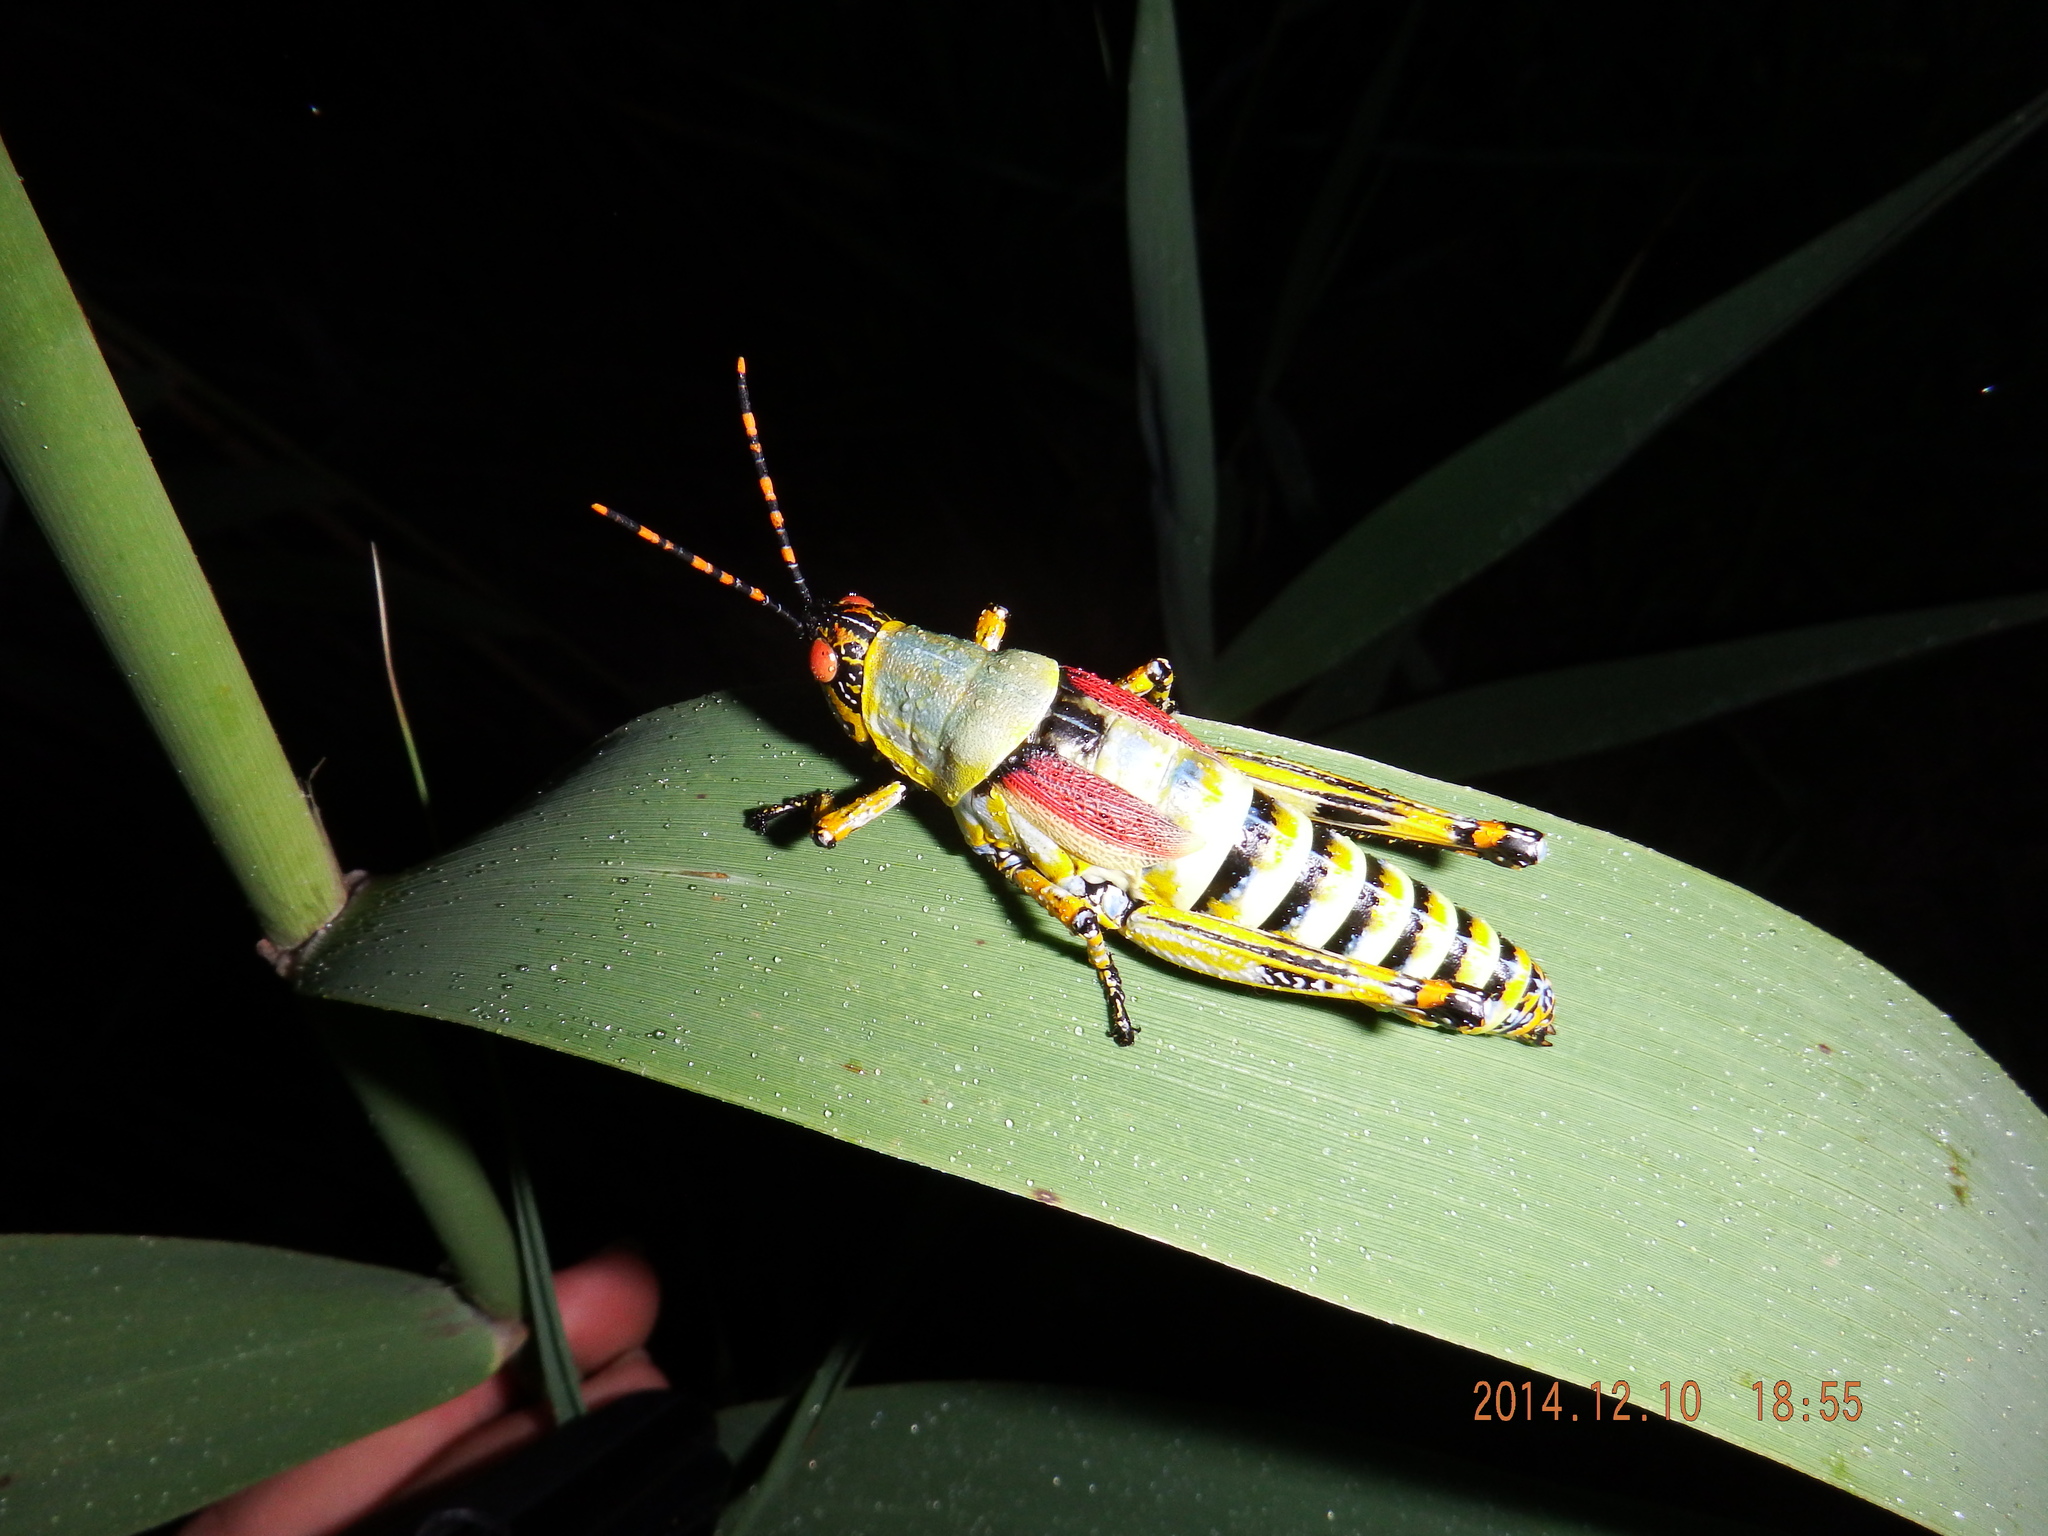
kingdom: Animalia
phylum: Arthropoda
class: Insecta
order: Orthoptera
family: Pyrgomorphidae
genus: Zonocerus
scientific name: Zonocerus elegans
